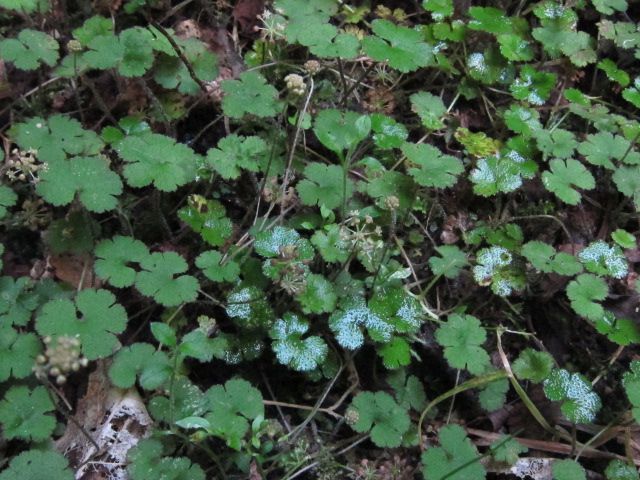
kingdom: Plantae
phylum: Tracheophyta
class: Magnoliopsida
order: Apiales
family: Araliaceae
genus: Hydrocotyle
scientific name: Hydrocotyle elongata
